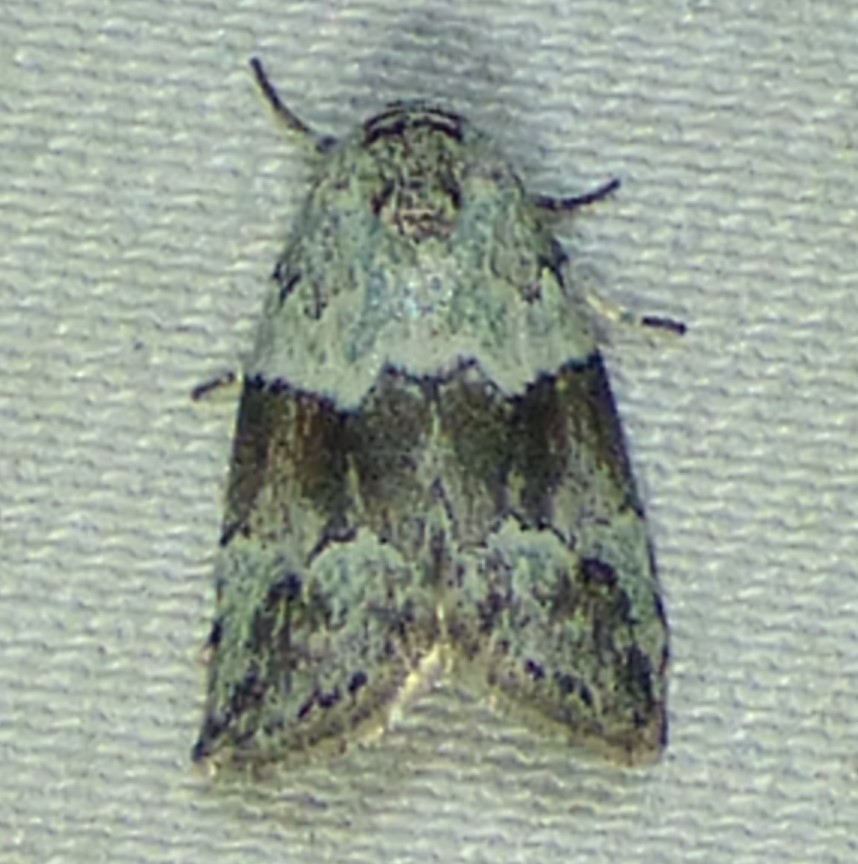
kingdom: Animalia
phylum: Arthropoda
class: Insecta
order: Lepidoptera
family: Nolidae
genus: Afrida
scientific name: Afrida ydatodes
